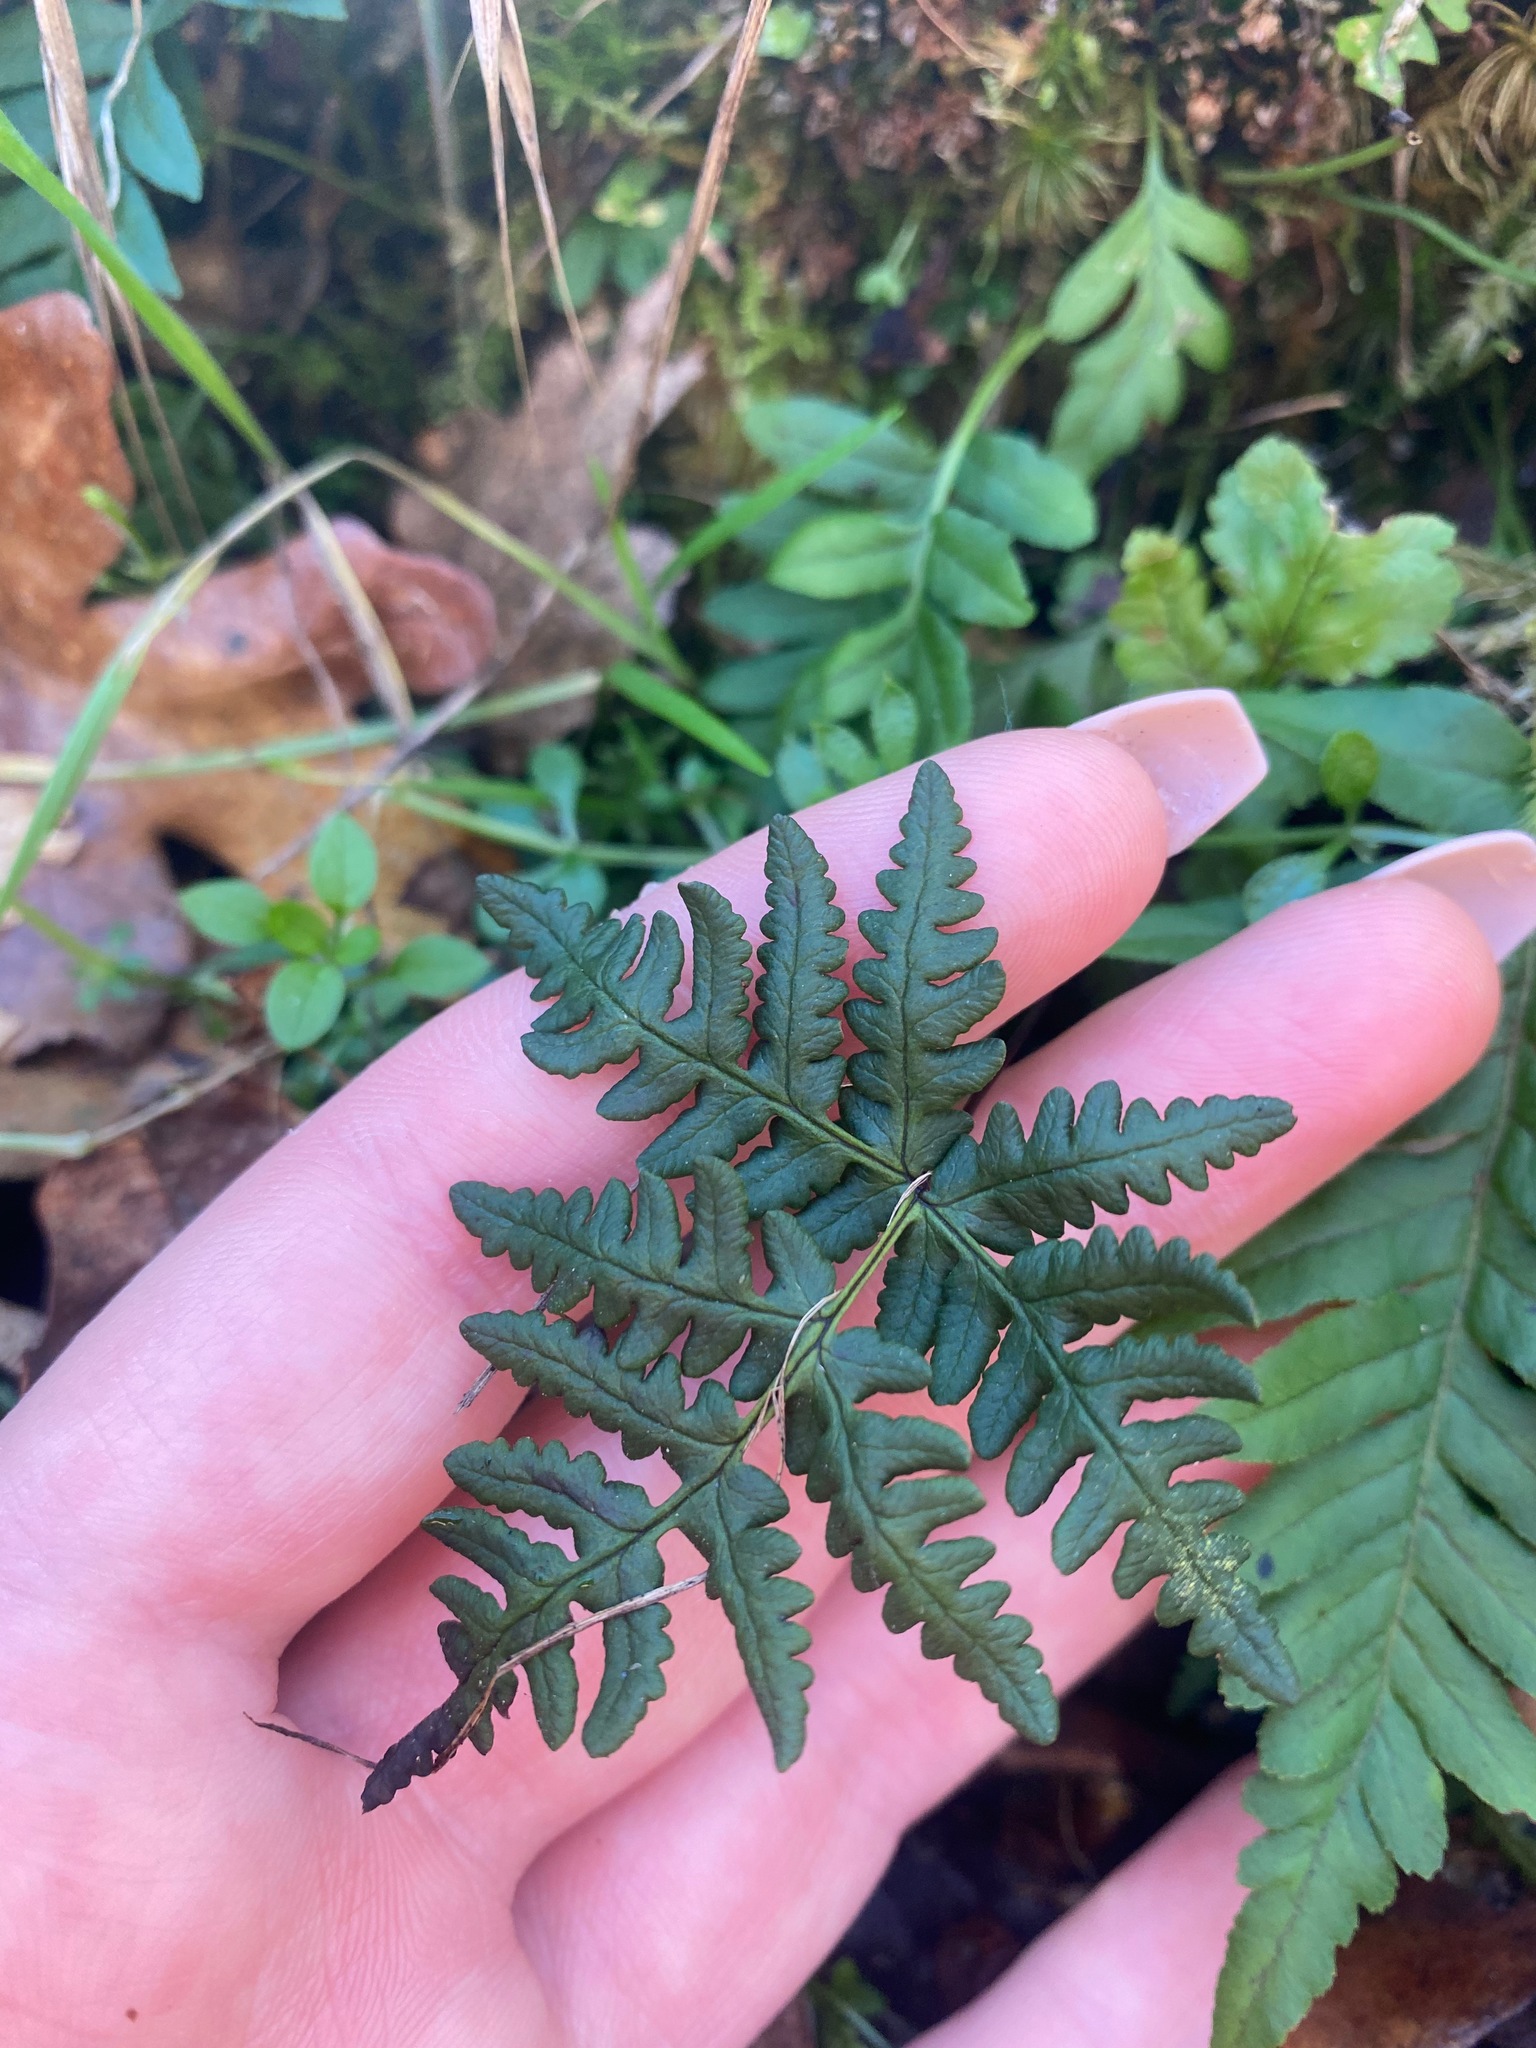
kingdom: Plantae
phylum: Tracheophyta
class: Polypodiopsida
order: Polypodiales
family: Pteridaceae
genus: Pentagramma
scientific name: Pentagramma triangularis
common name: Gold fern
